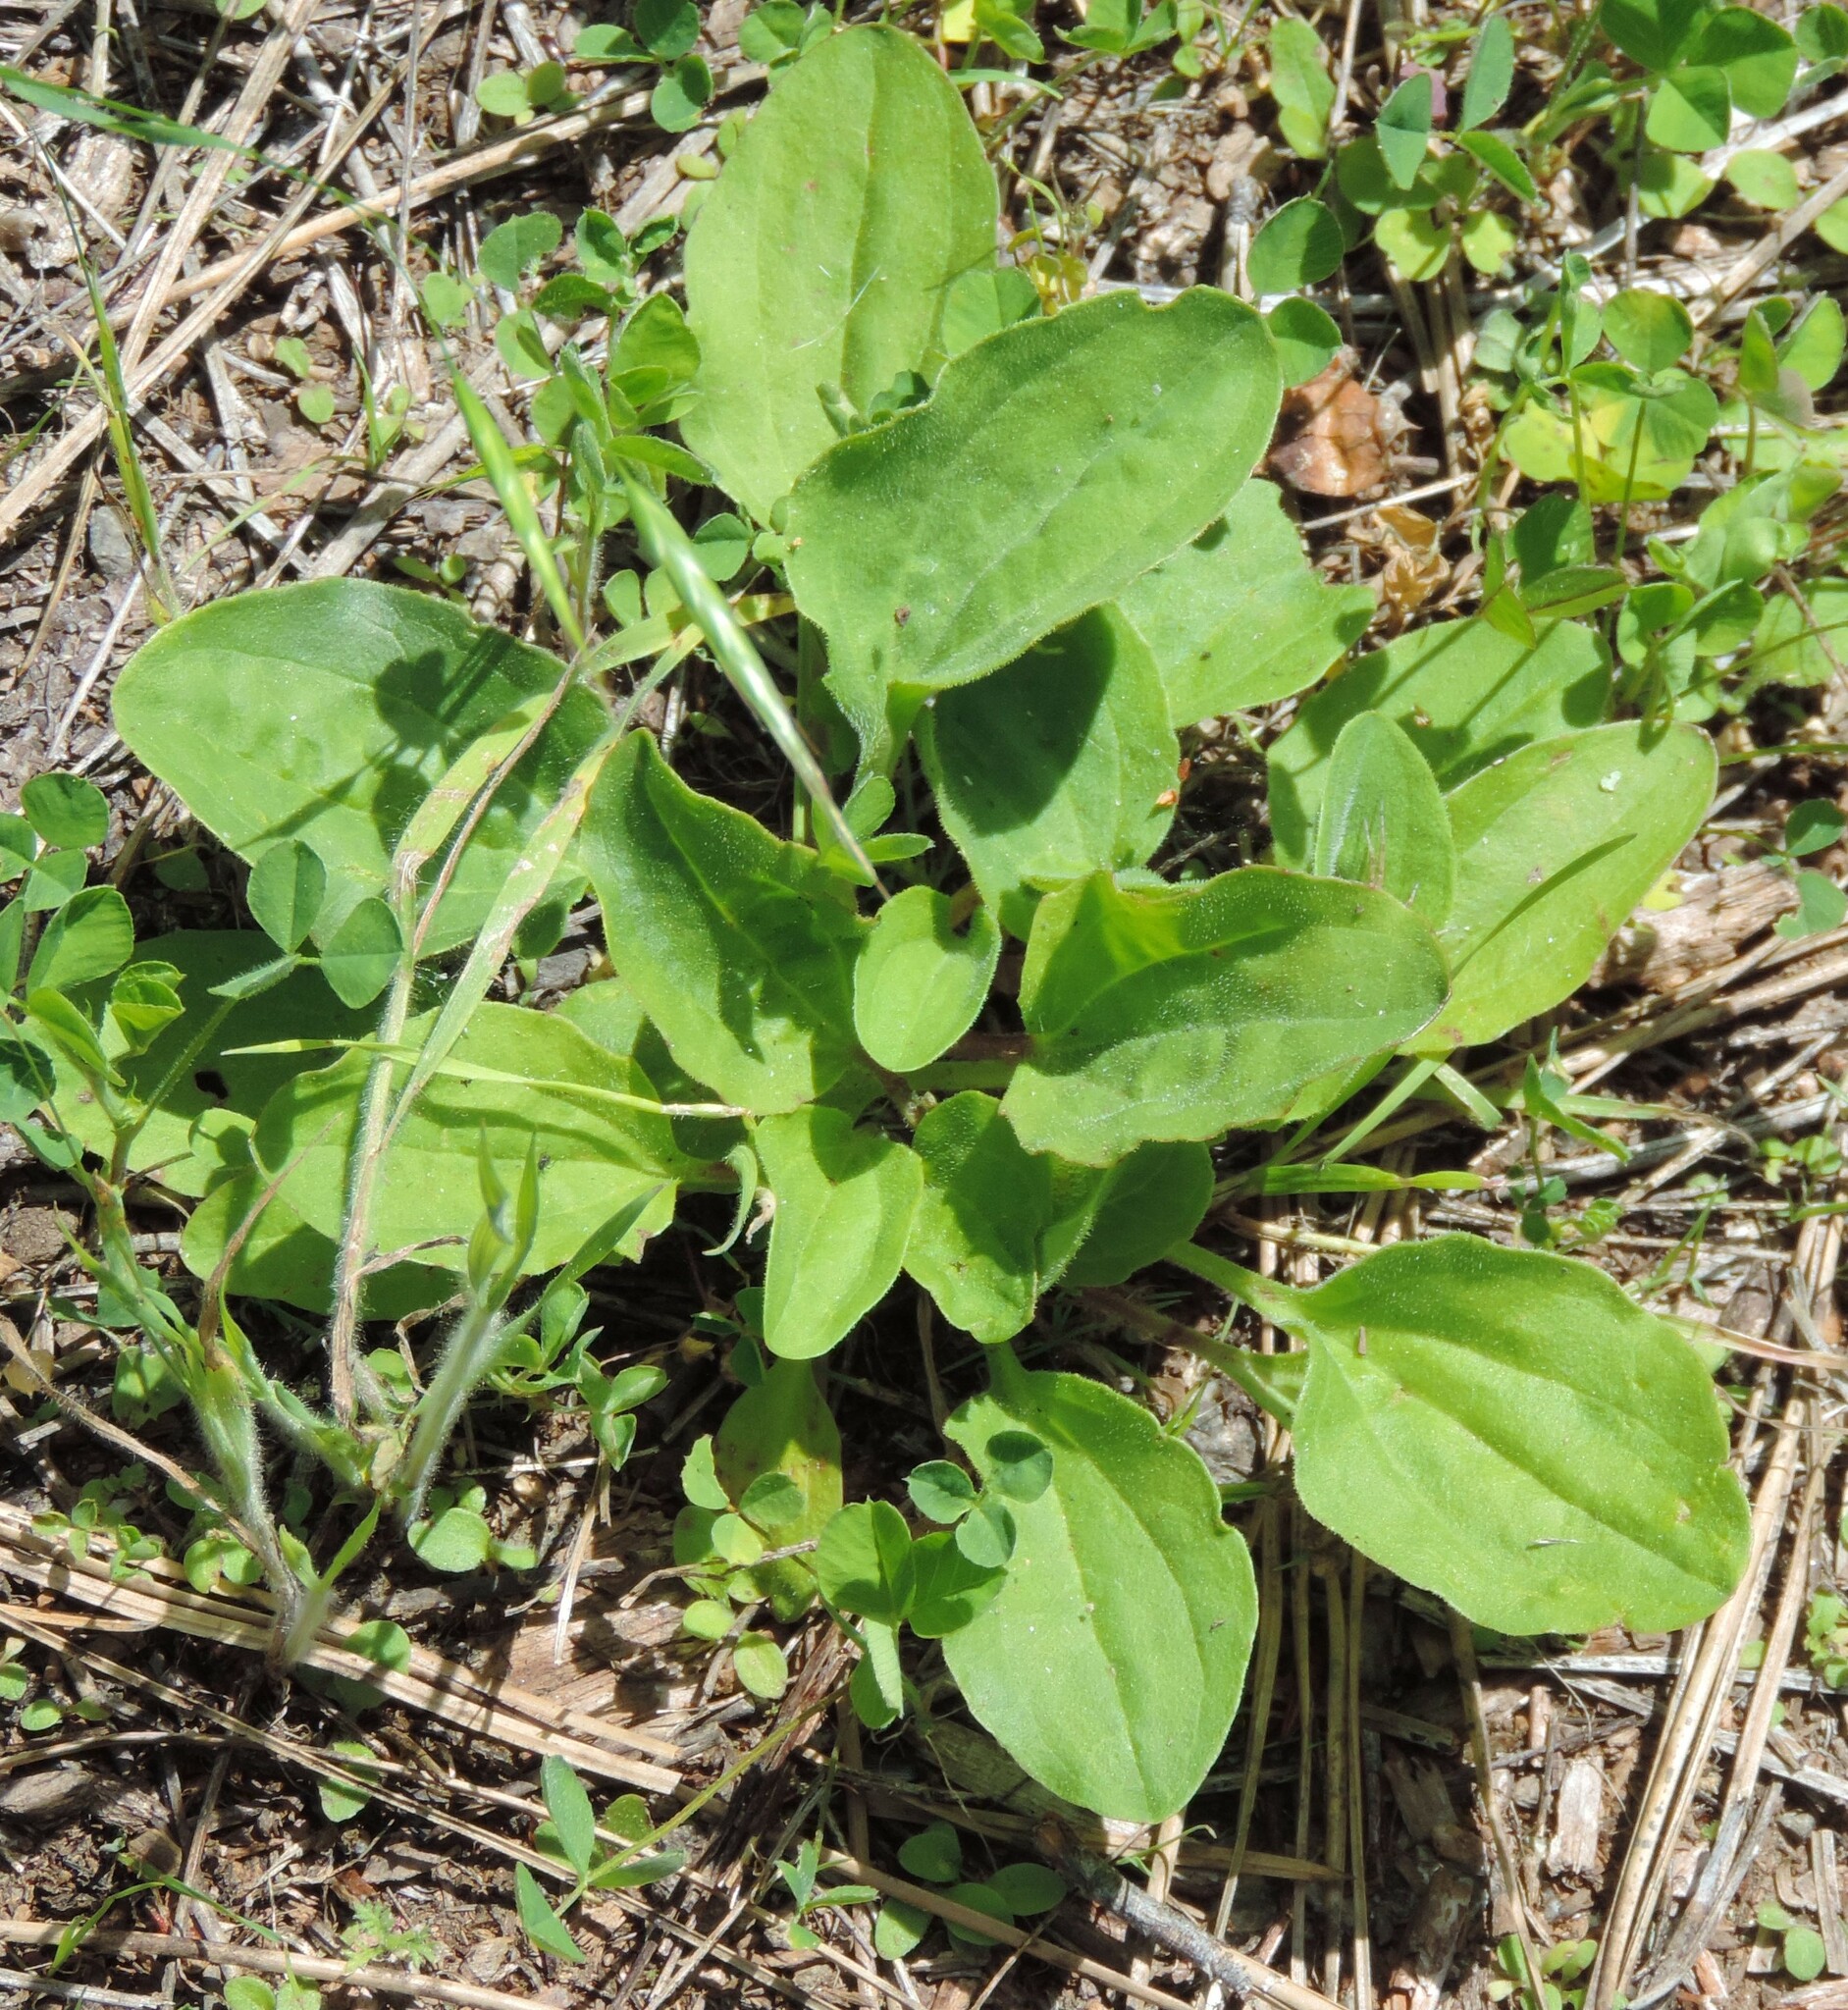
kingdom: Plantae
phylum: Tracheophyta
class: Magnoliopsida
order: Lamiales
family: Plantaginaceae
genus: Plantago
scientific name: Plantago major
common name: Common plantain
